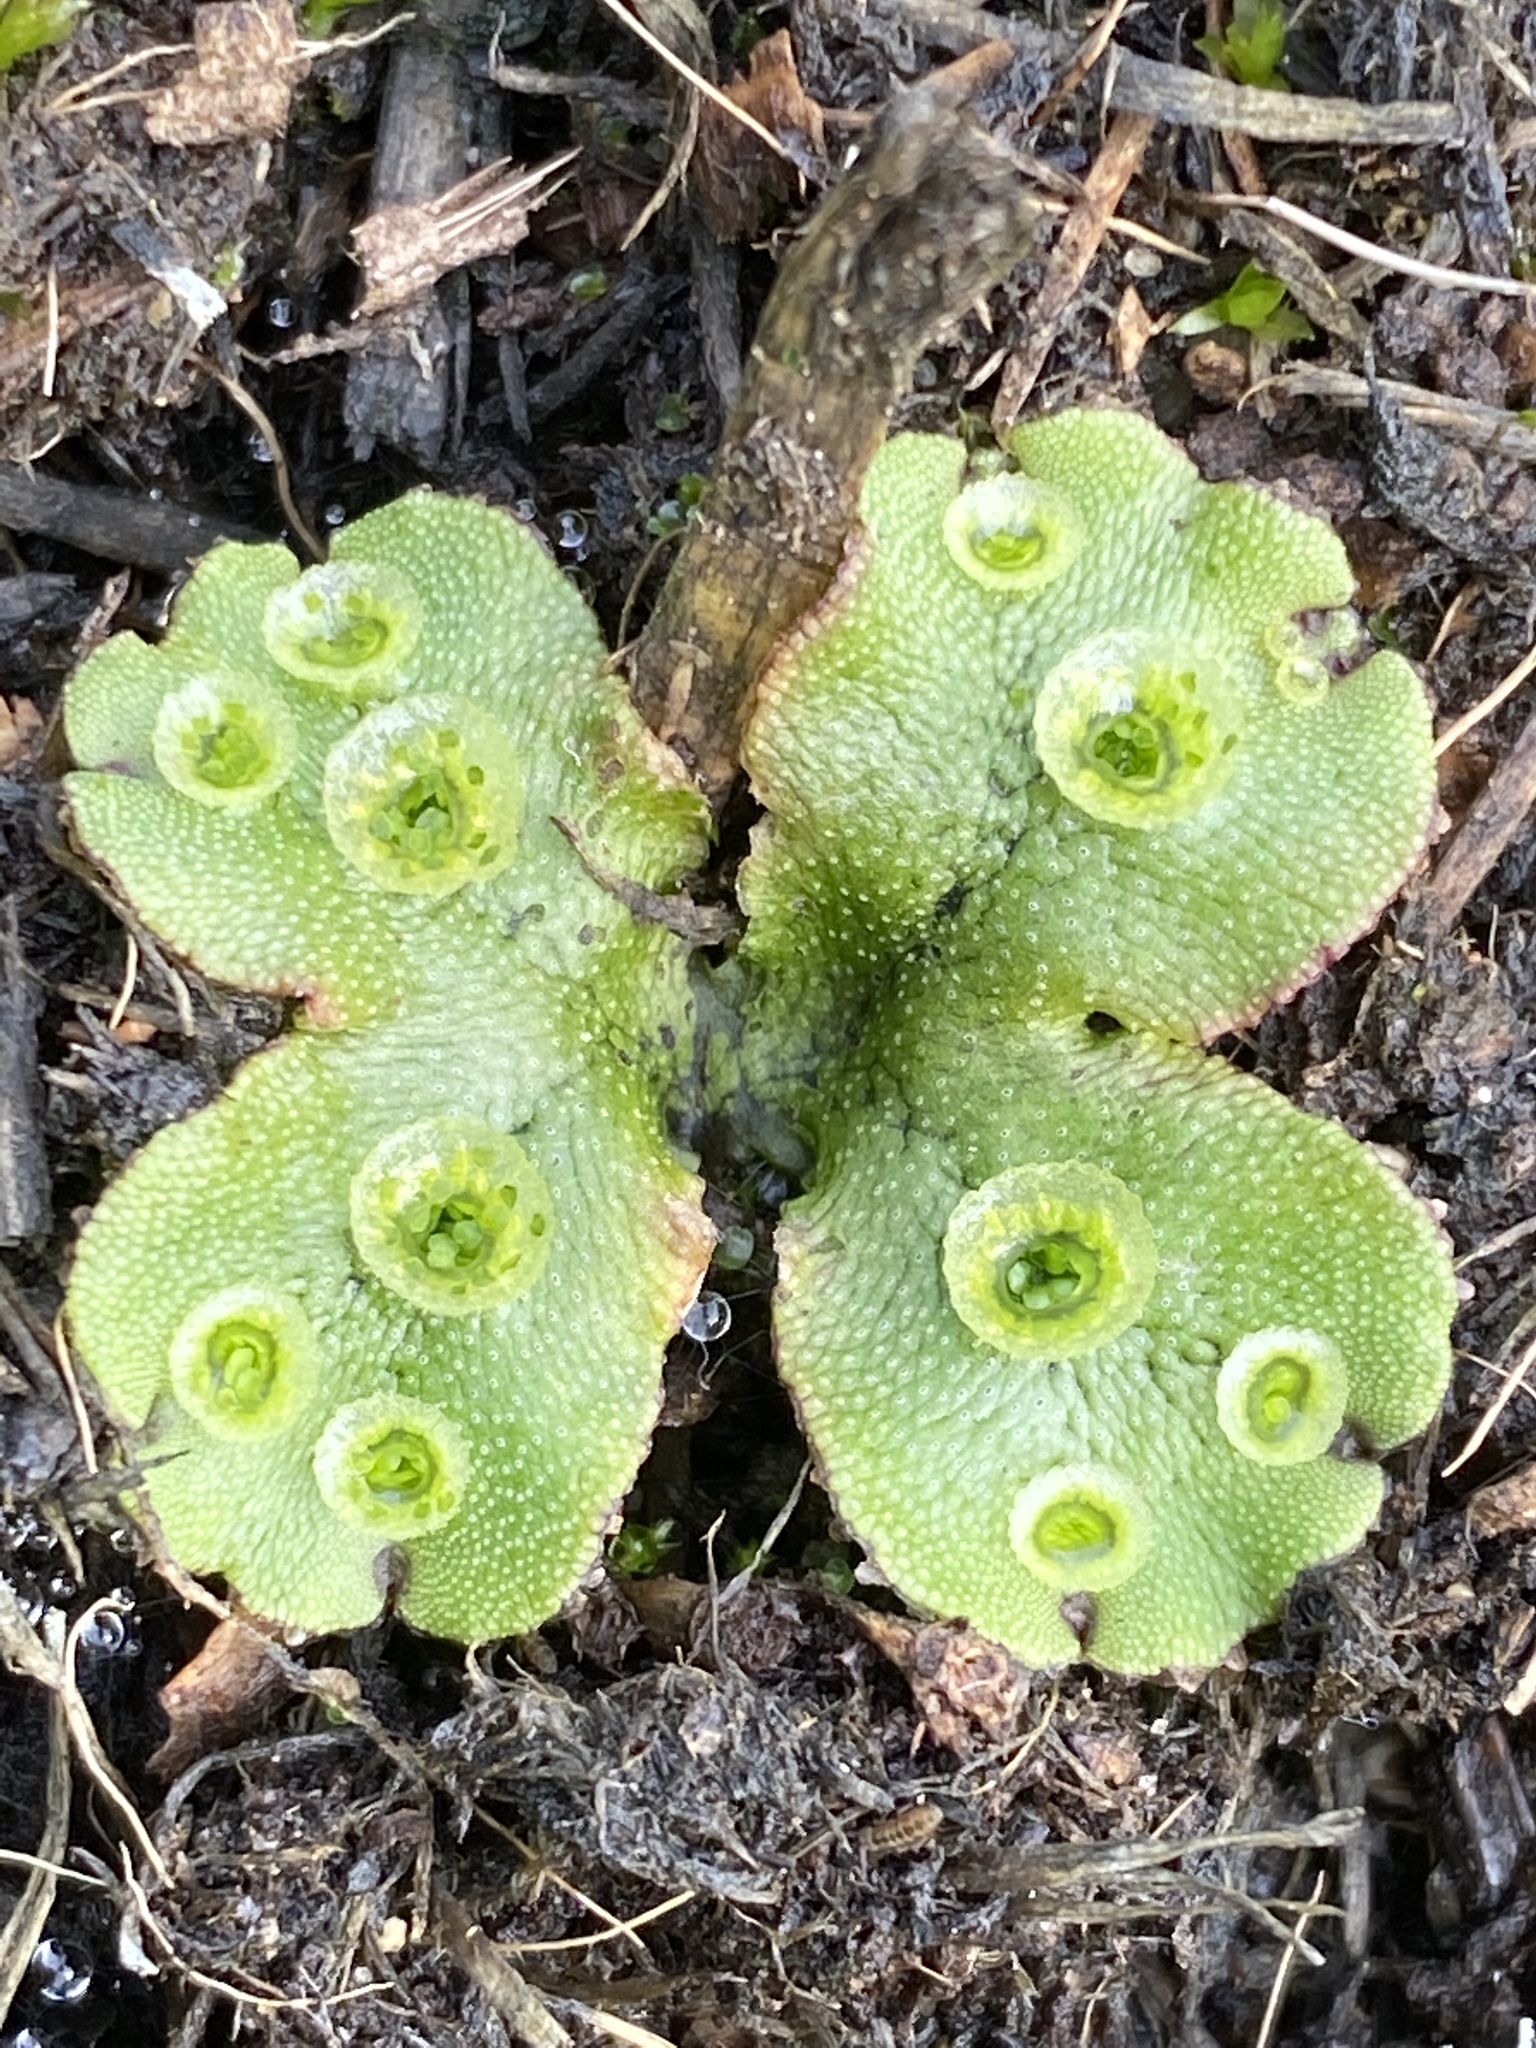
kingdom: Plantae
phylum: Marchantiophyta
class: Marchantiopsida
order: Marchantiales
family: Marchantiaceae
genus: Marchantia
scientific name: Marchantia polymorpha
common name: Common liverwort
